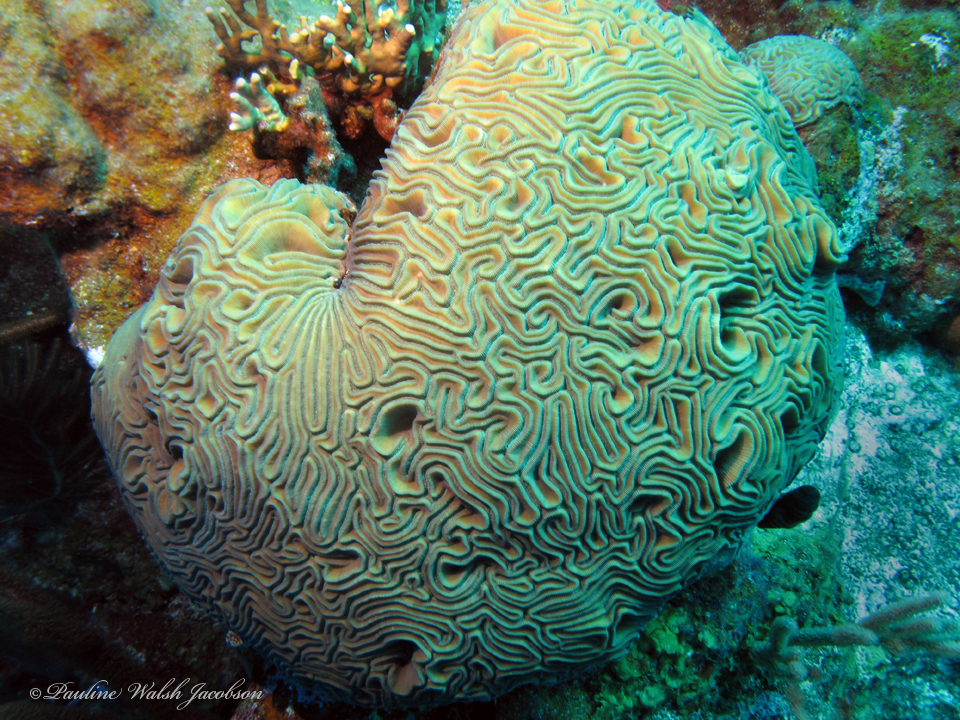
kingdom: Animalia
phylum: Cnidaria
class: Anthozoa
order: Scleractinia
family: Faviidae
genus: Diploria
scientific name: Diploria labyrinthiformis
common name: Grooved brain coral
